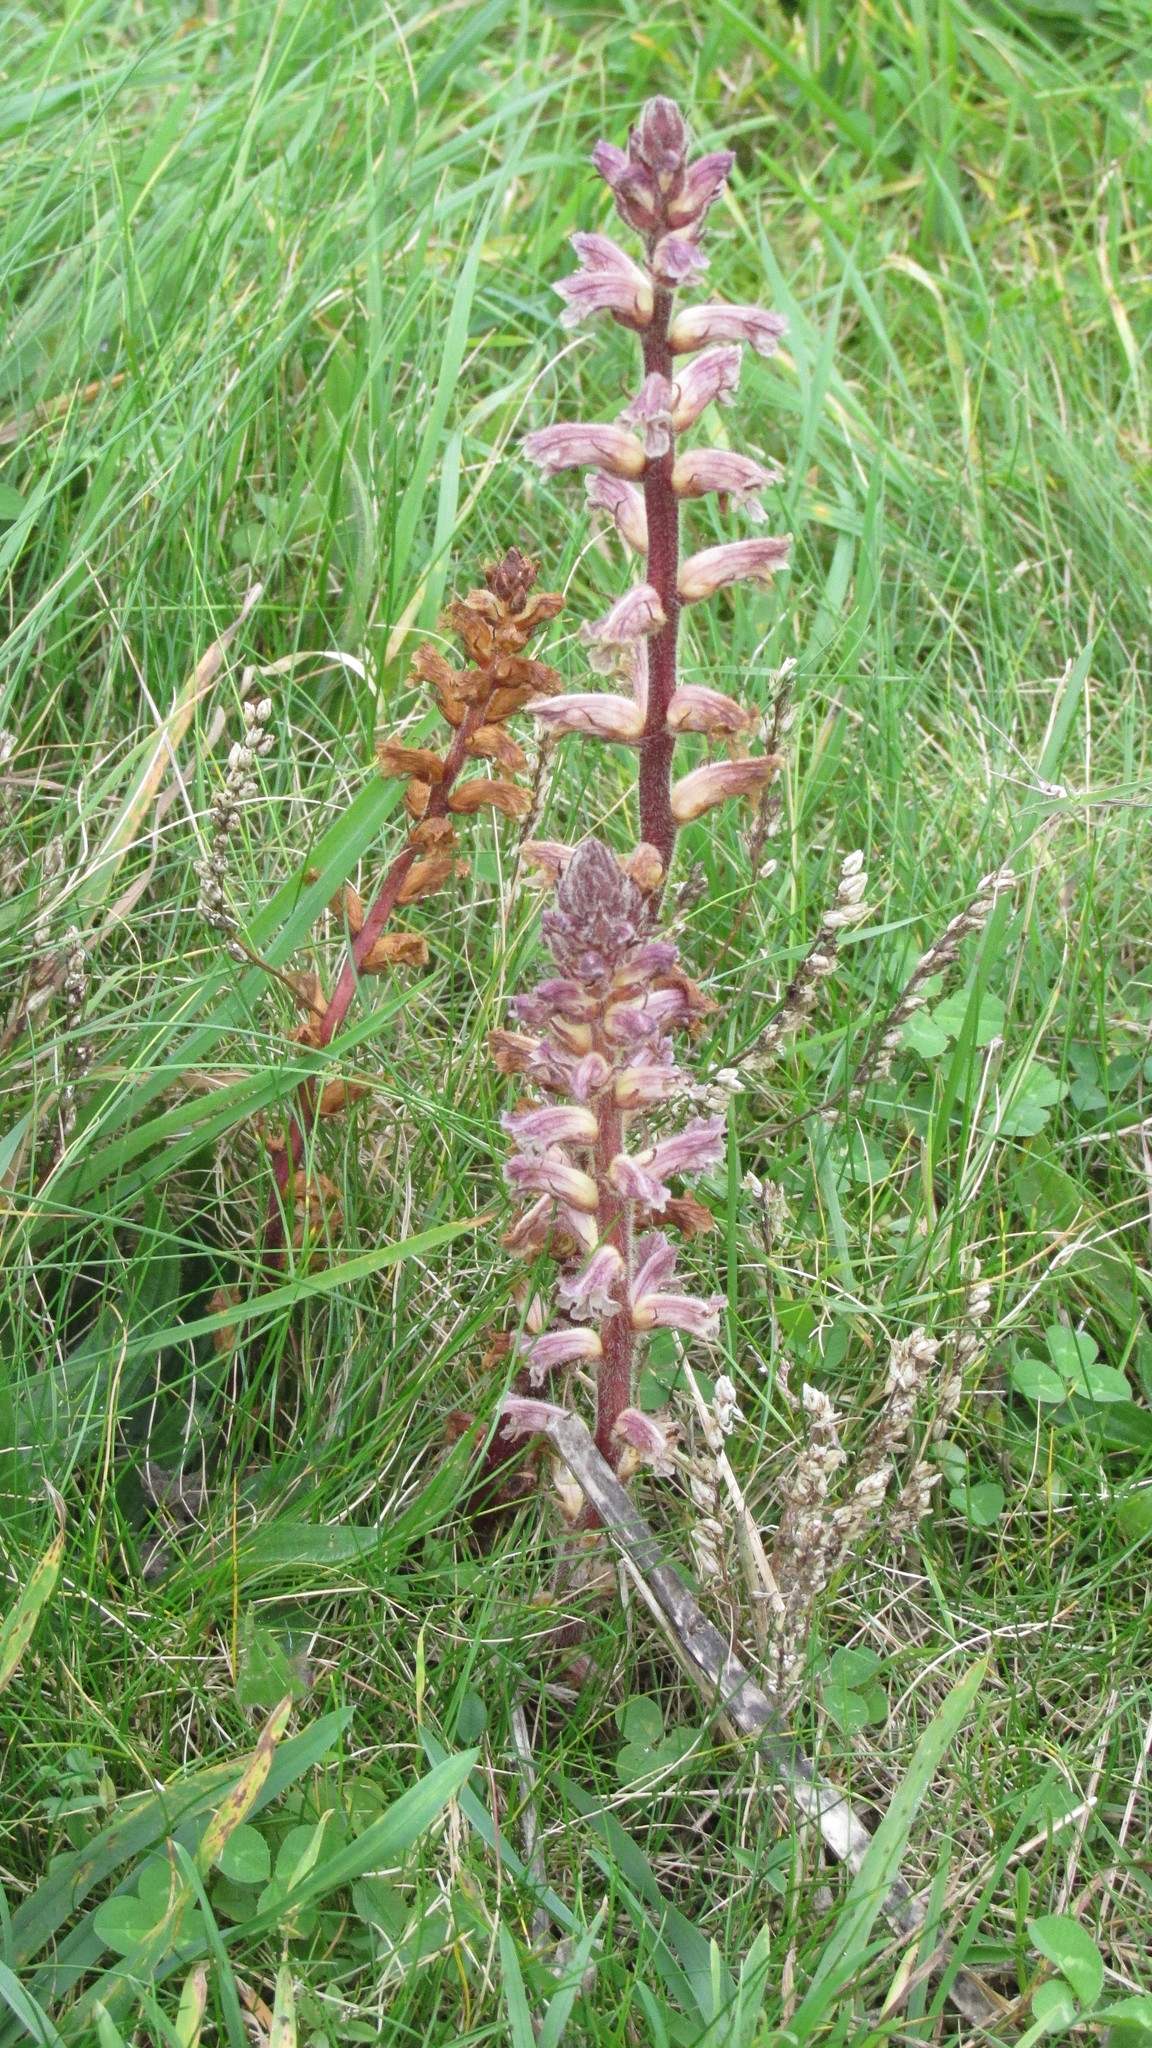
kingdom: Plantae
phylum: Tracheophyta
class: Magnoliopsida
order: Lamiales
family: Orobanchaceae
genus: Orobanche
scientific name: Orobanche minor
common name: Common broomrape
